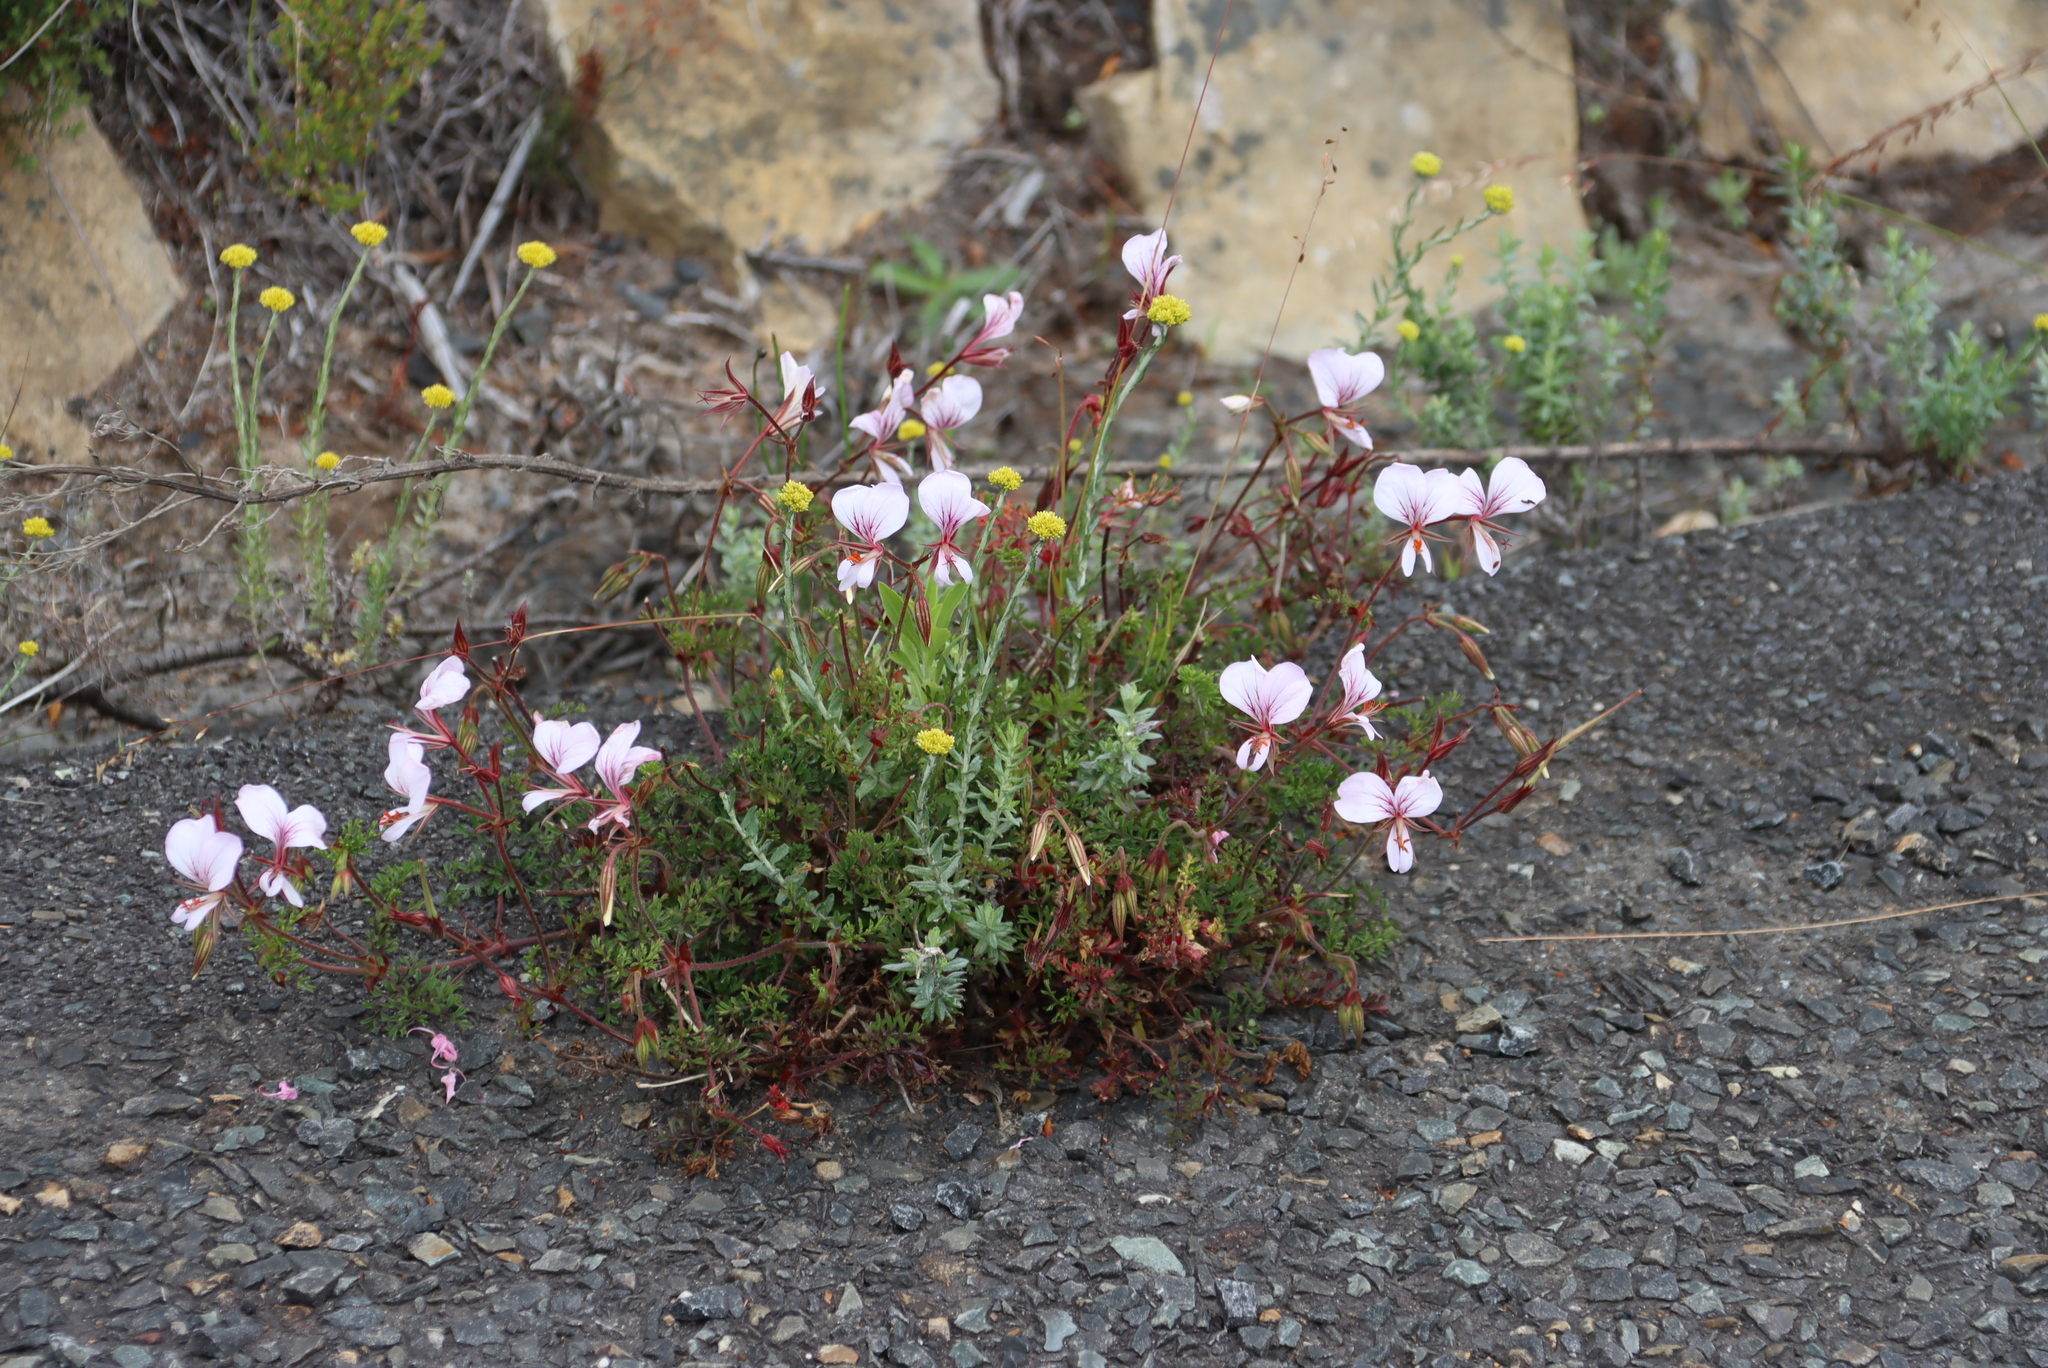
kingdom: Plantae
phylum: Tracheophyta
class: Magnoliopsida
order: Geraniales
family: Geraniaceae
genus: Pelargonium
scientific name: Pelargonium longicaule
